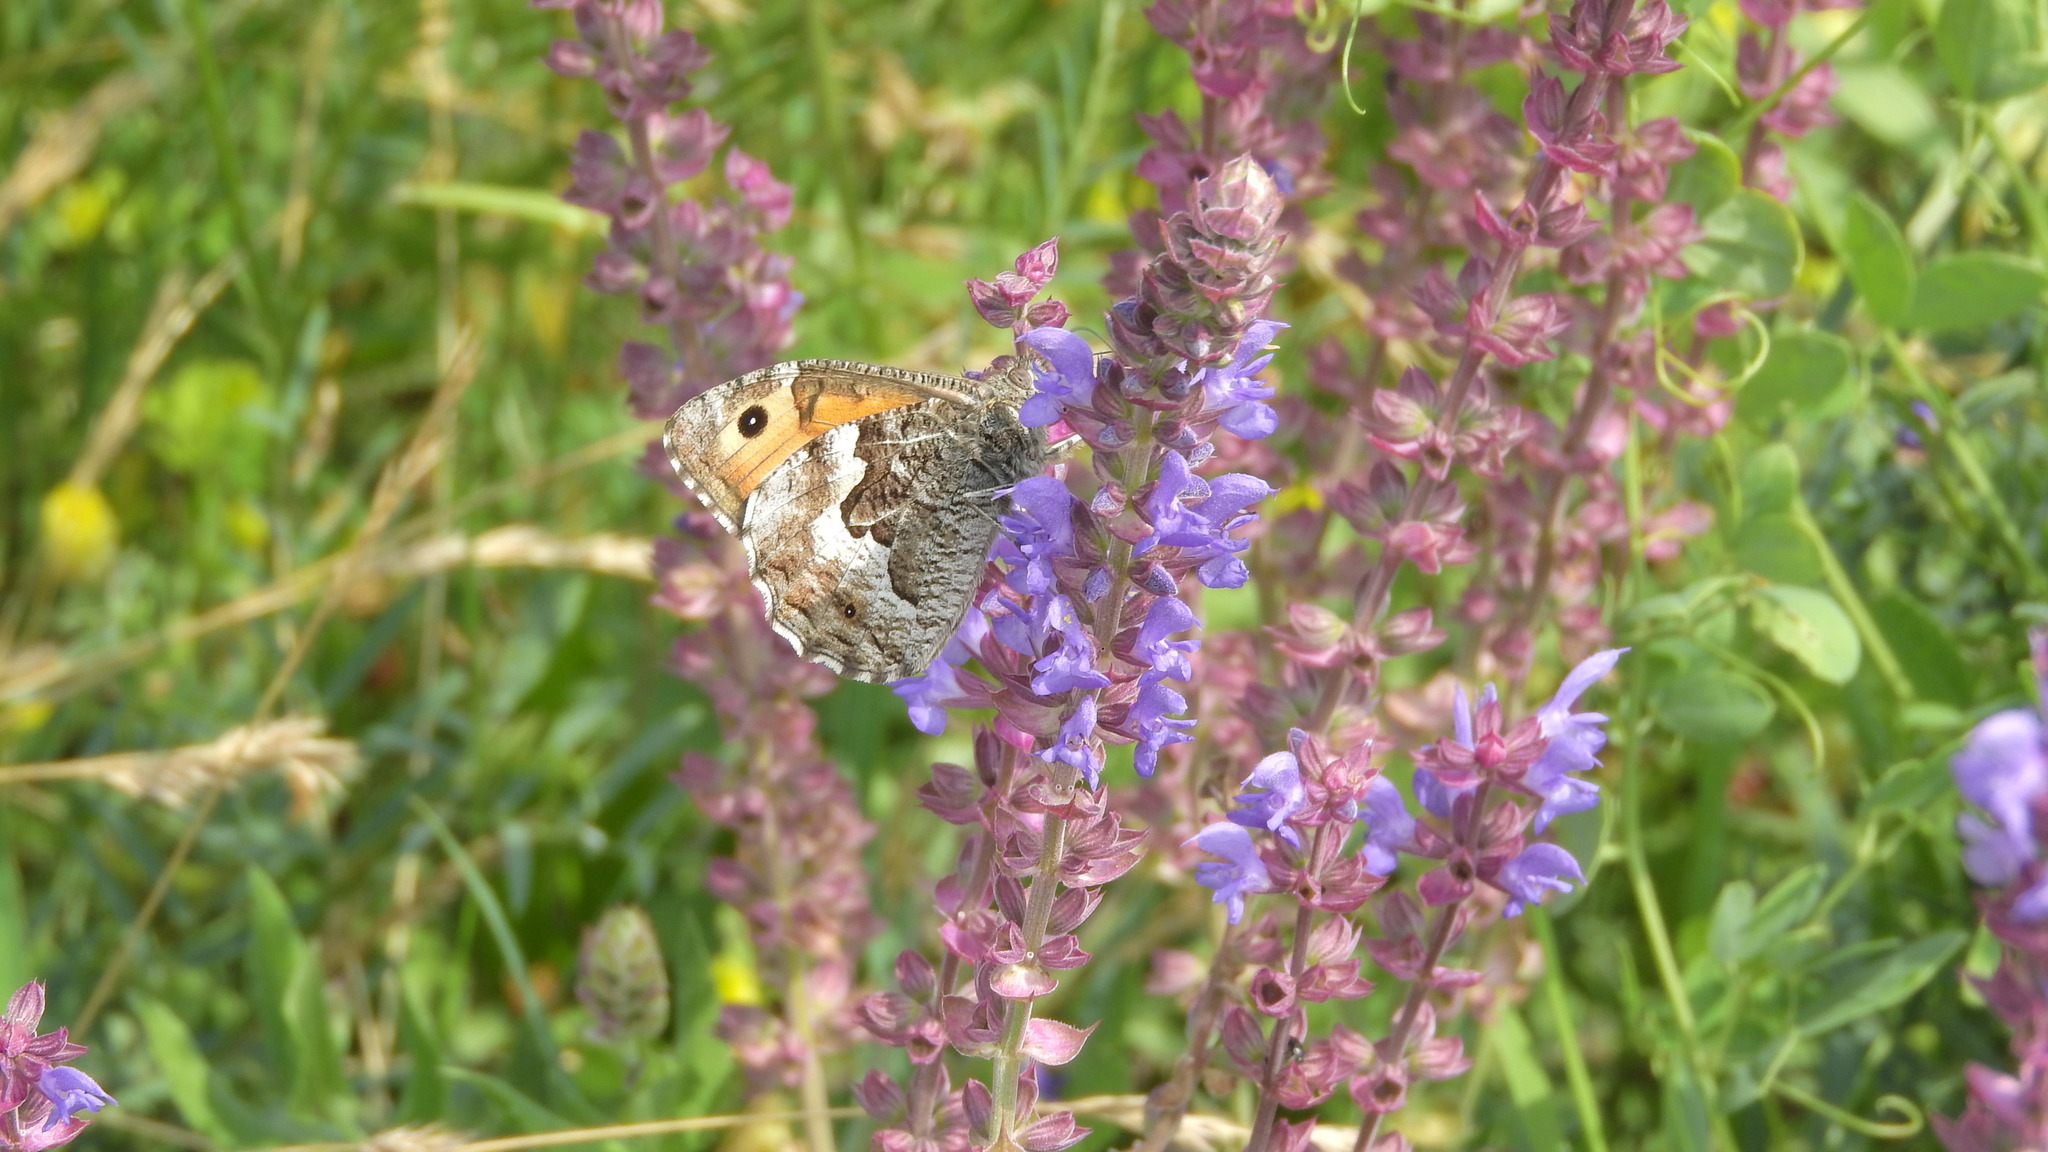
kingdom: Animalia
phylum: Arthropoda
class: Insecta
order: Lepidoptera
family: Nymphalidae
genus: Hipparchia
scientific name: Hipparchia semele
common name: Grayling
